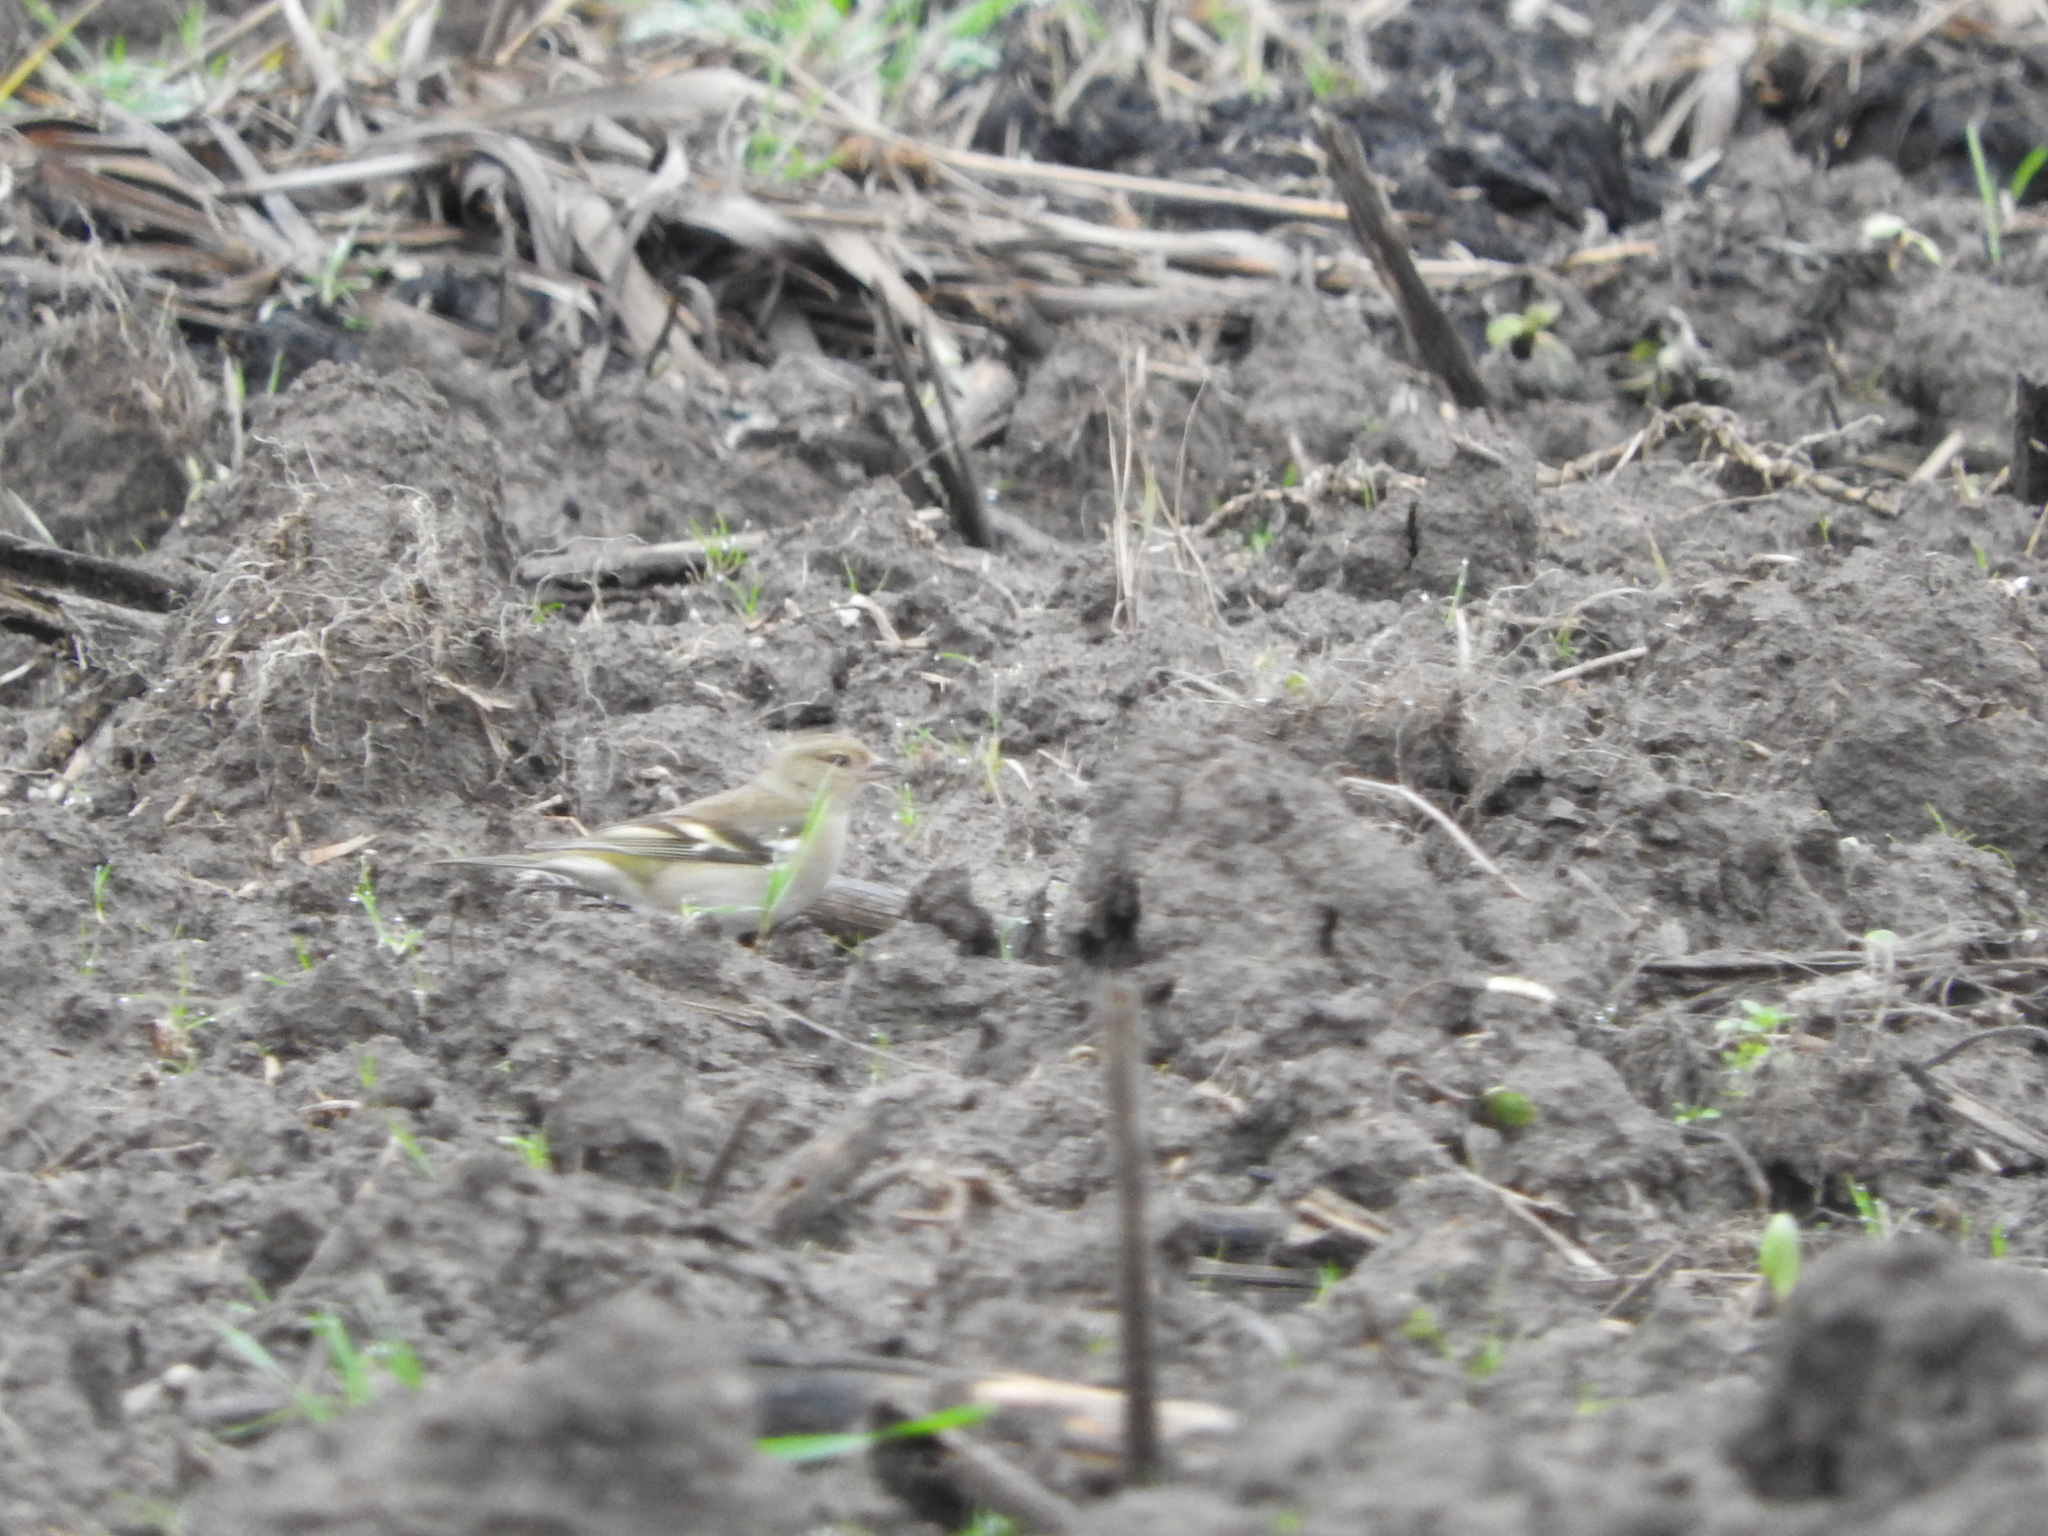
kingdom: Animalia
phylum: Chordata
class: Aves
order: Passeriformes
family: Fringillidae
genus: Fringilla
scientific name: Fringilla coelebs
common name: Common chaffinch
